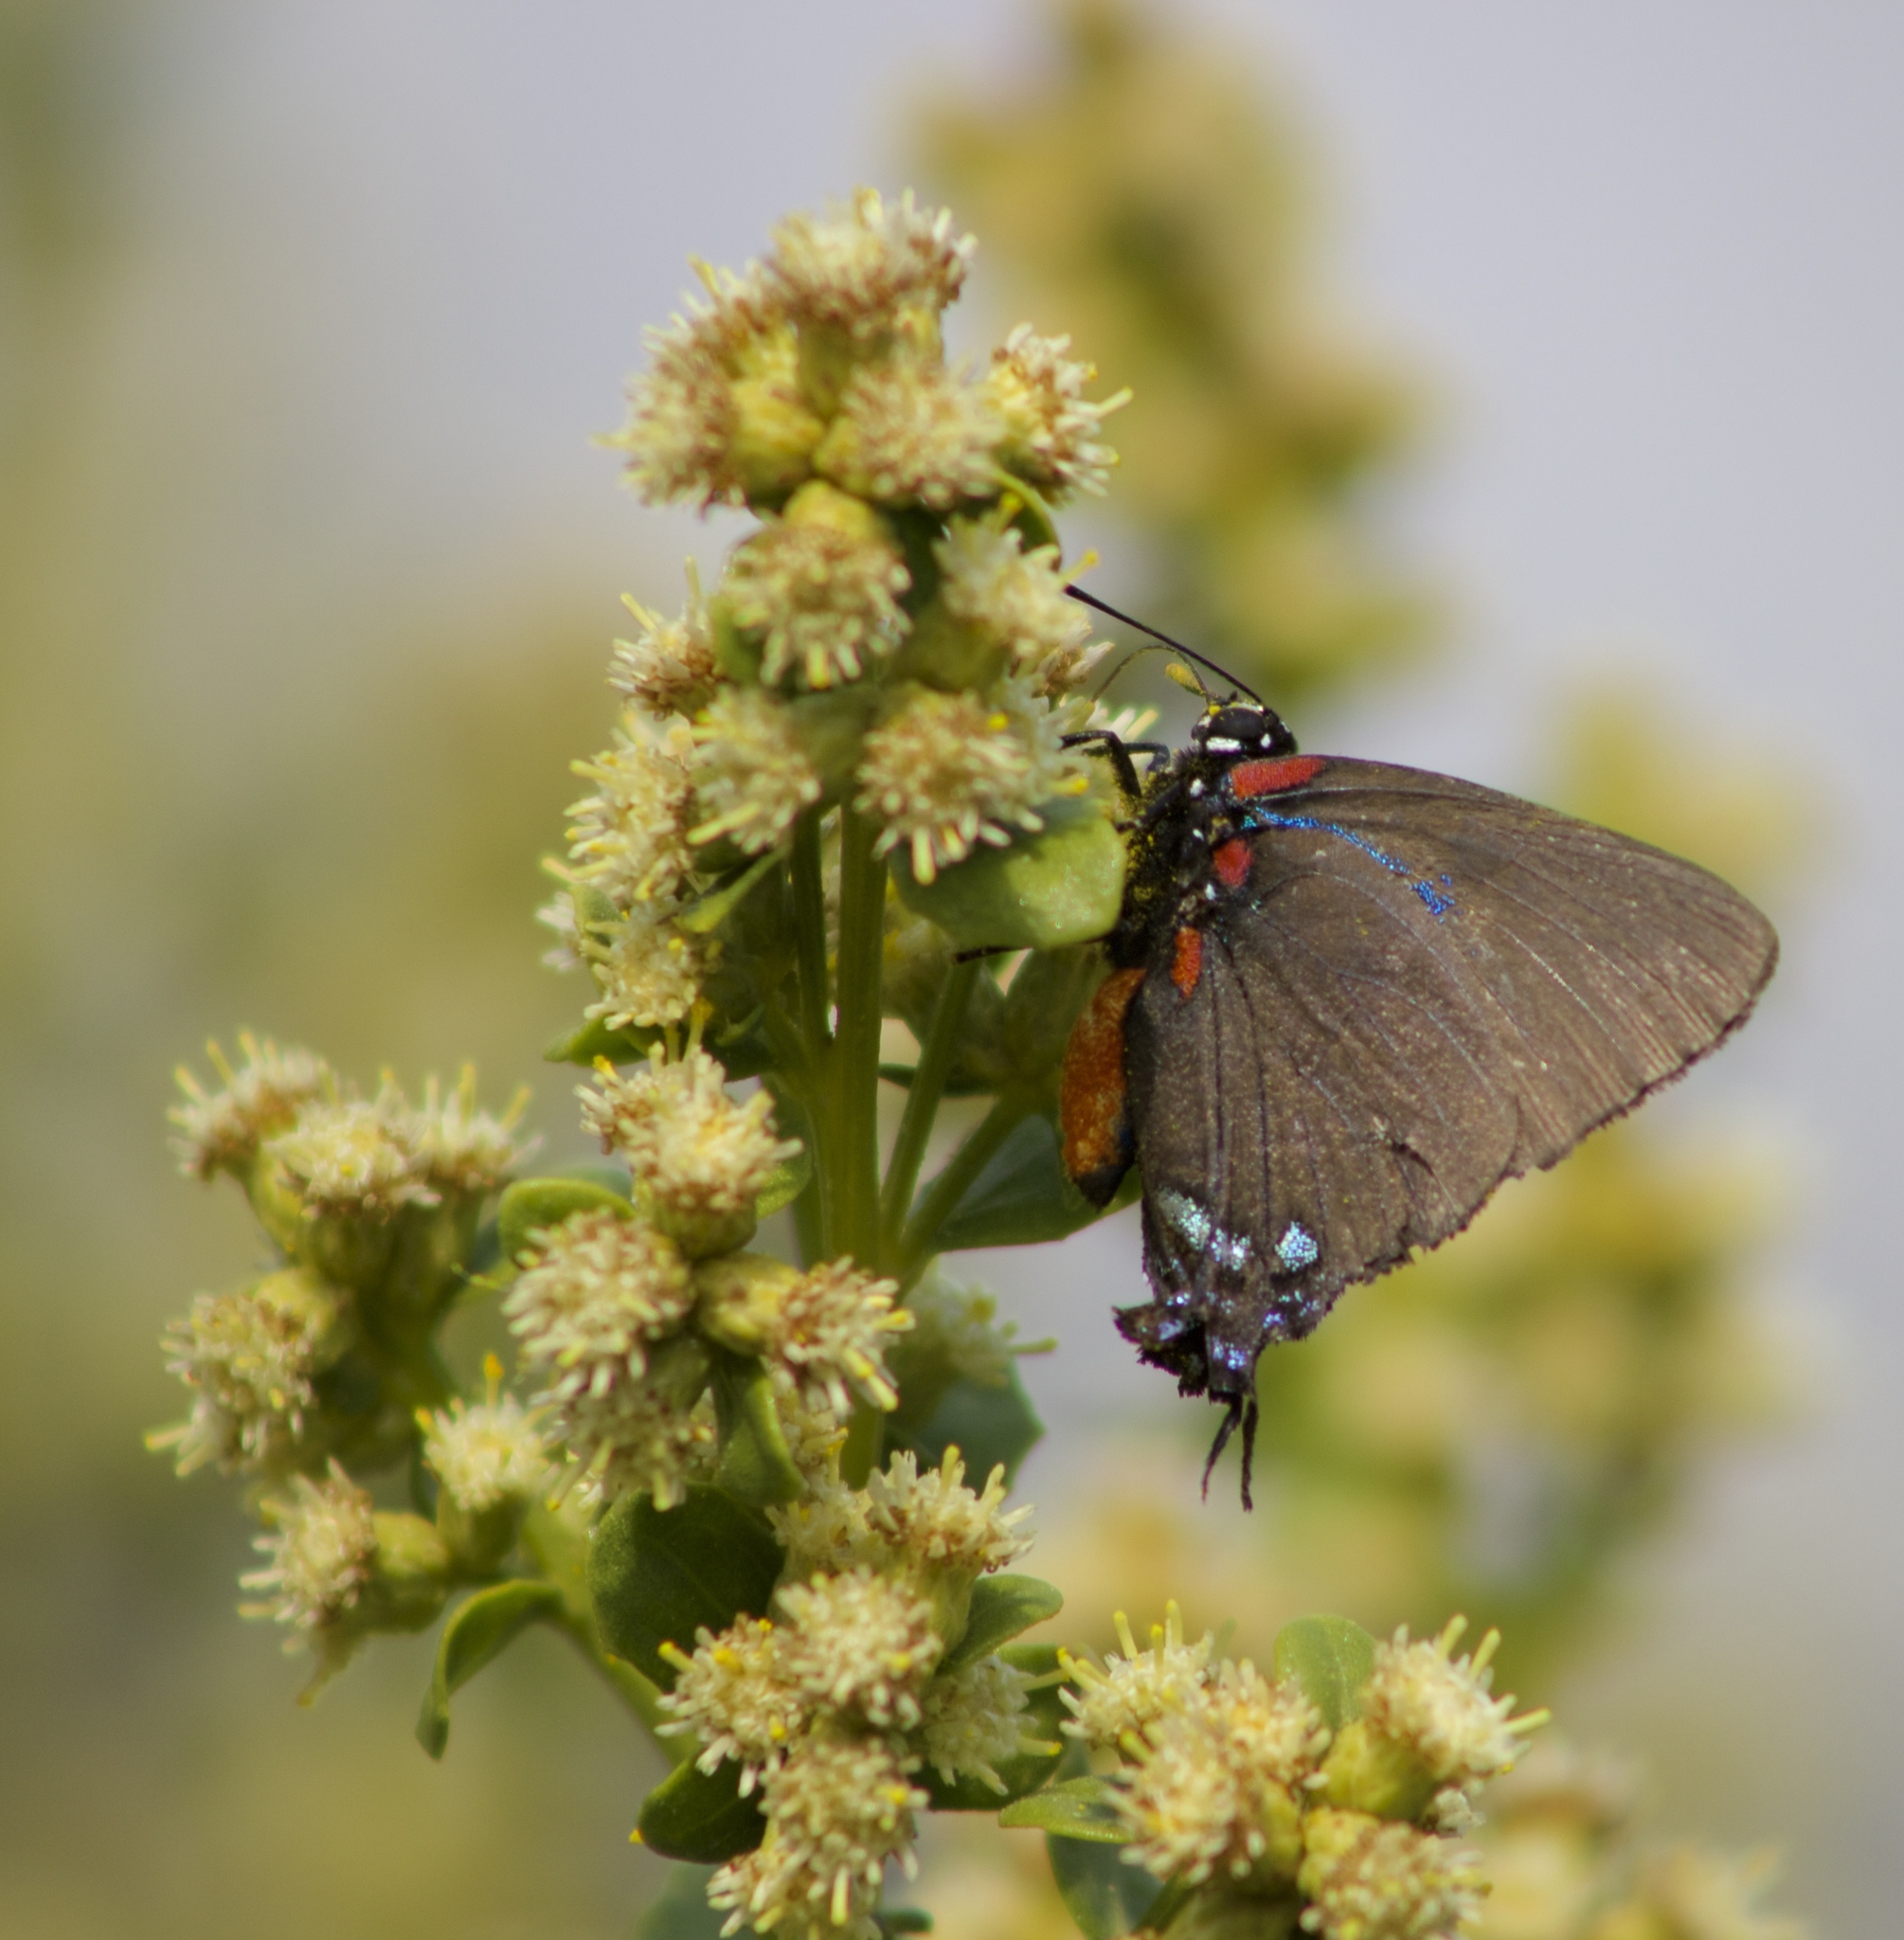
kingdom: Animalia
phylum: Arthropoda
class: Insecta
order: Lepidoptera
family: Lycaenidae
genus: Atlides
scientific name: Atlides halesus
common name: Great purple hairstreak
